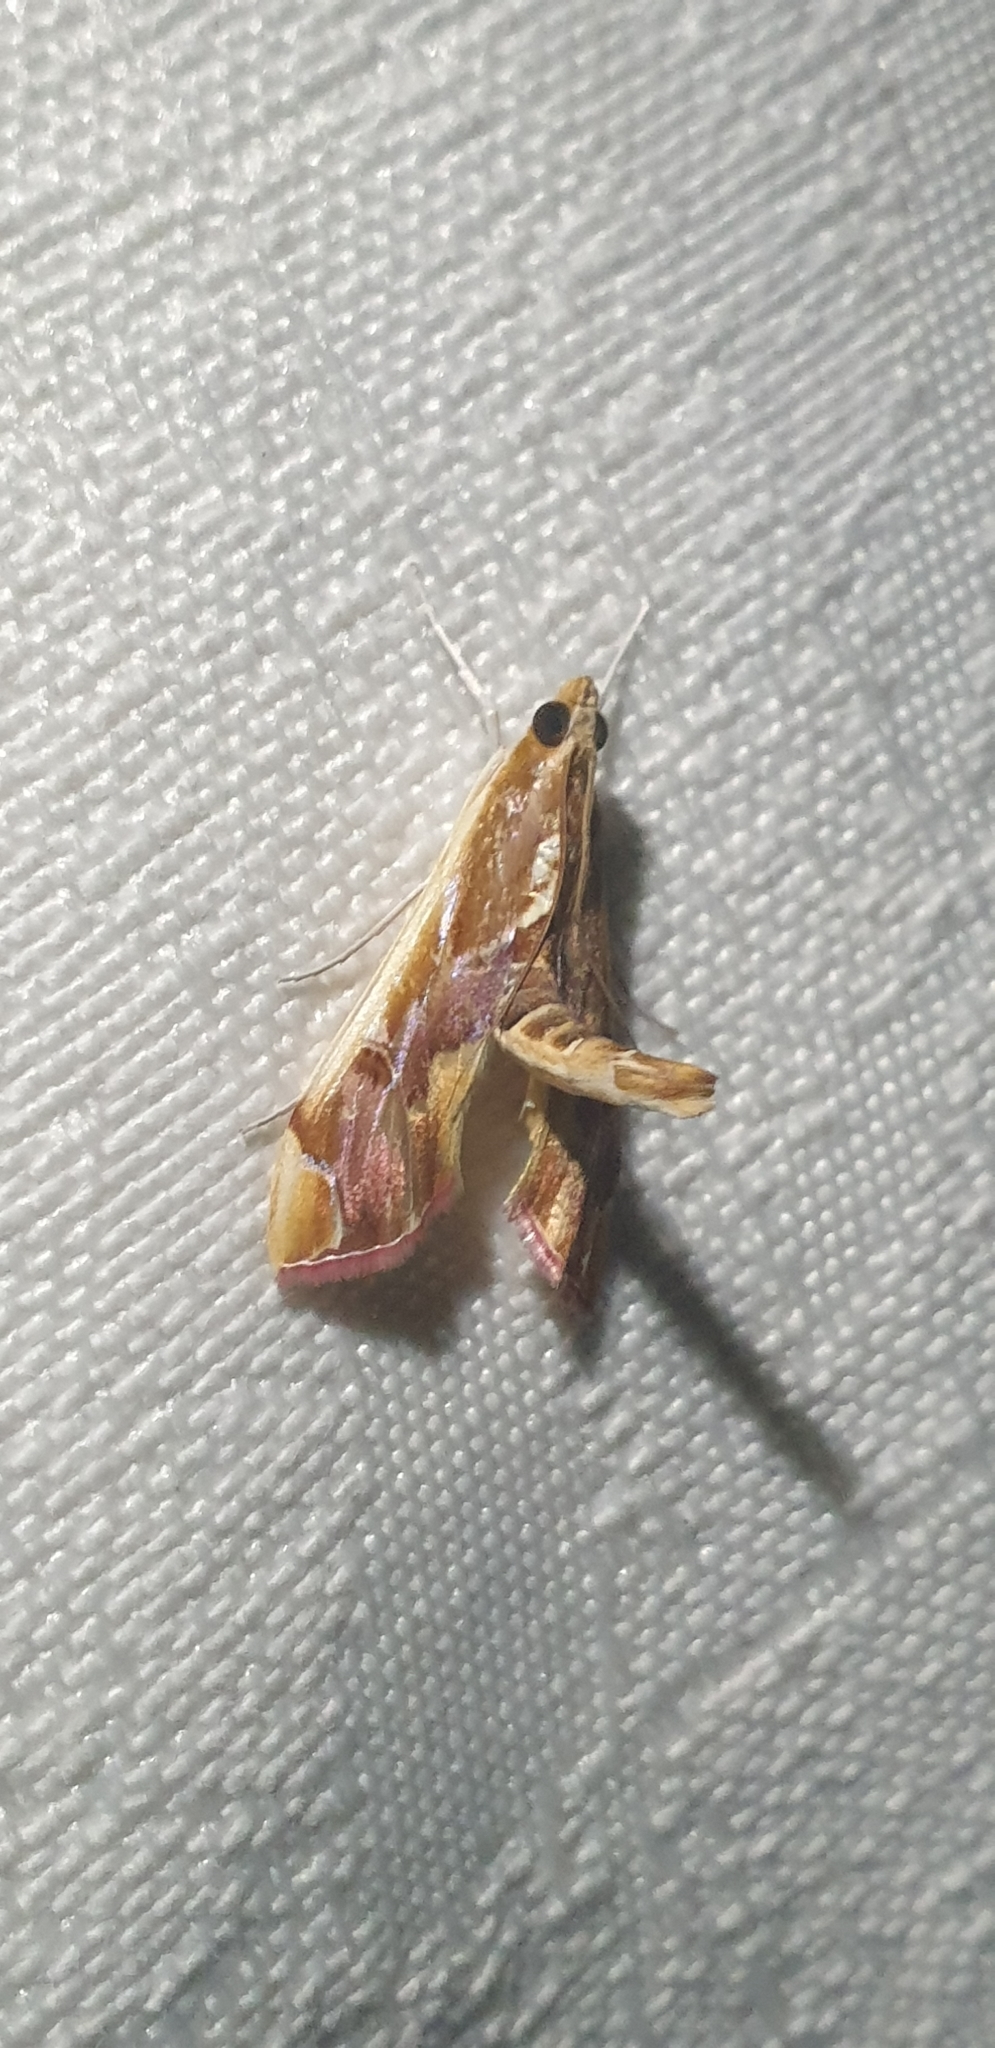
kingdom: Animalia
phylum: Arthropoda
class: Insecta
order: Lepidoptera
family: Crambidae
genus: Agathodes
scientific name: Agathodes ostentalis
